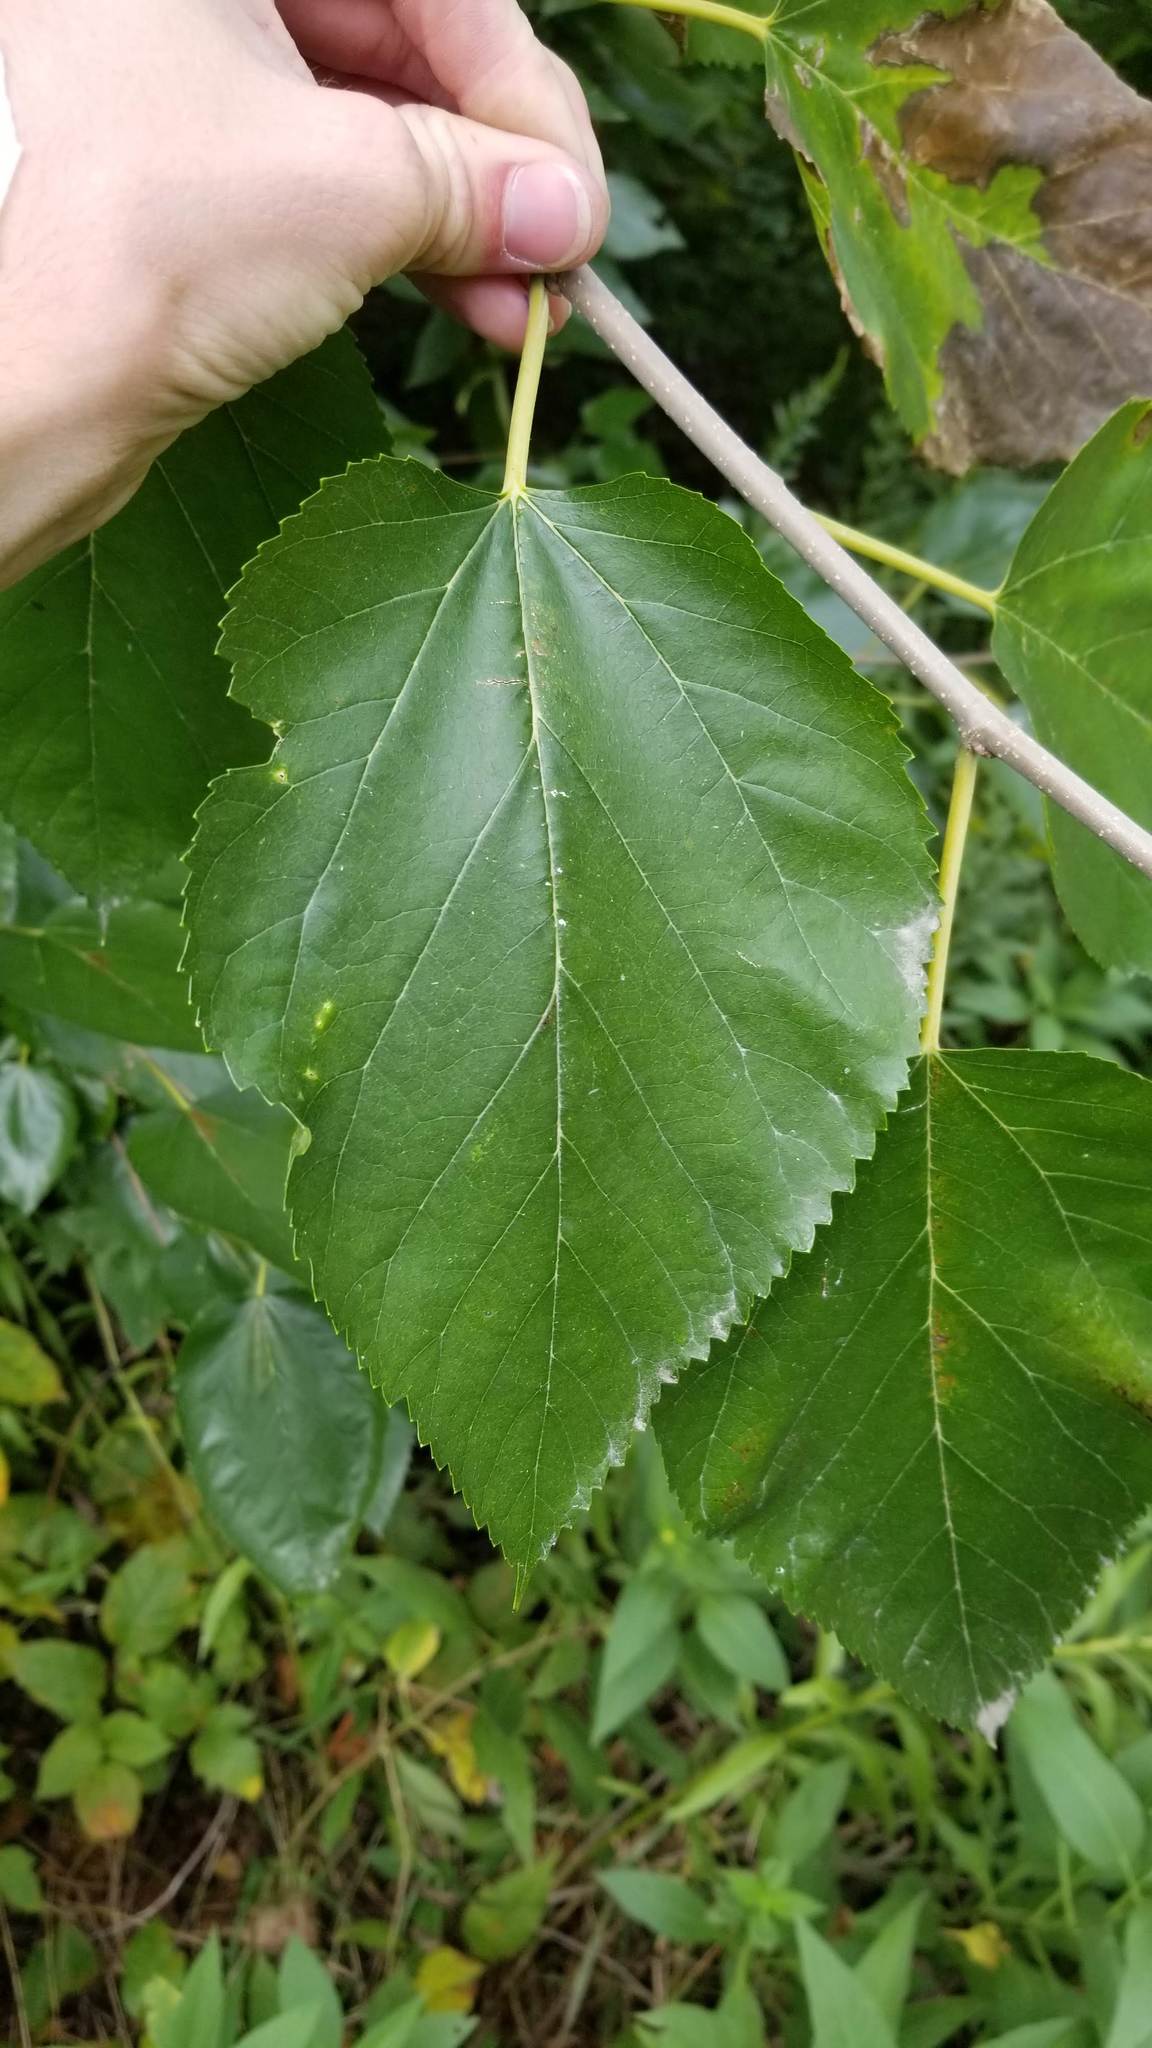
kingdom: Plantae
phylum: Tracheophyta
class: Magnoliopsida
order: Rosales
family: Moraceae
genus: Morus
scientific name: Morus alba
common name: White mulberry
